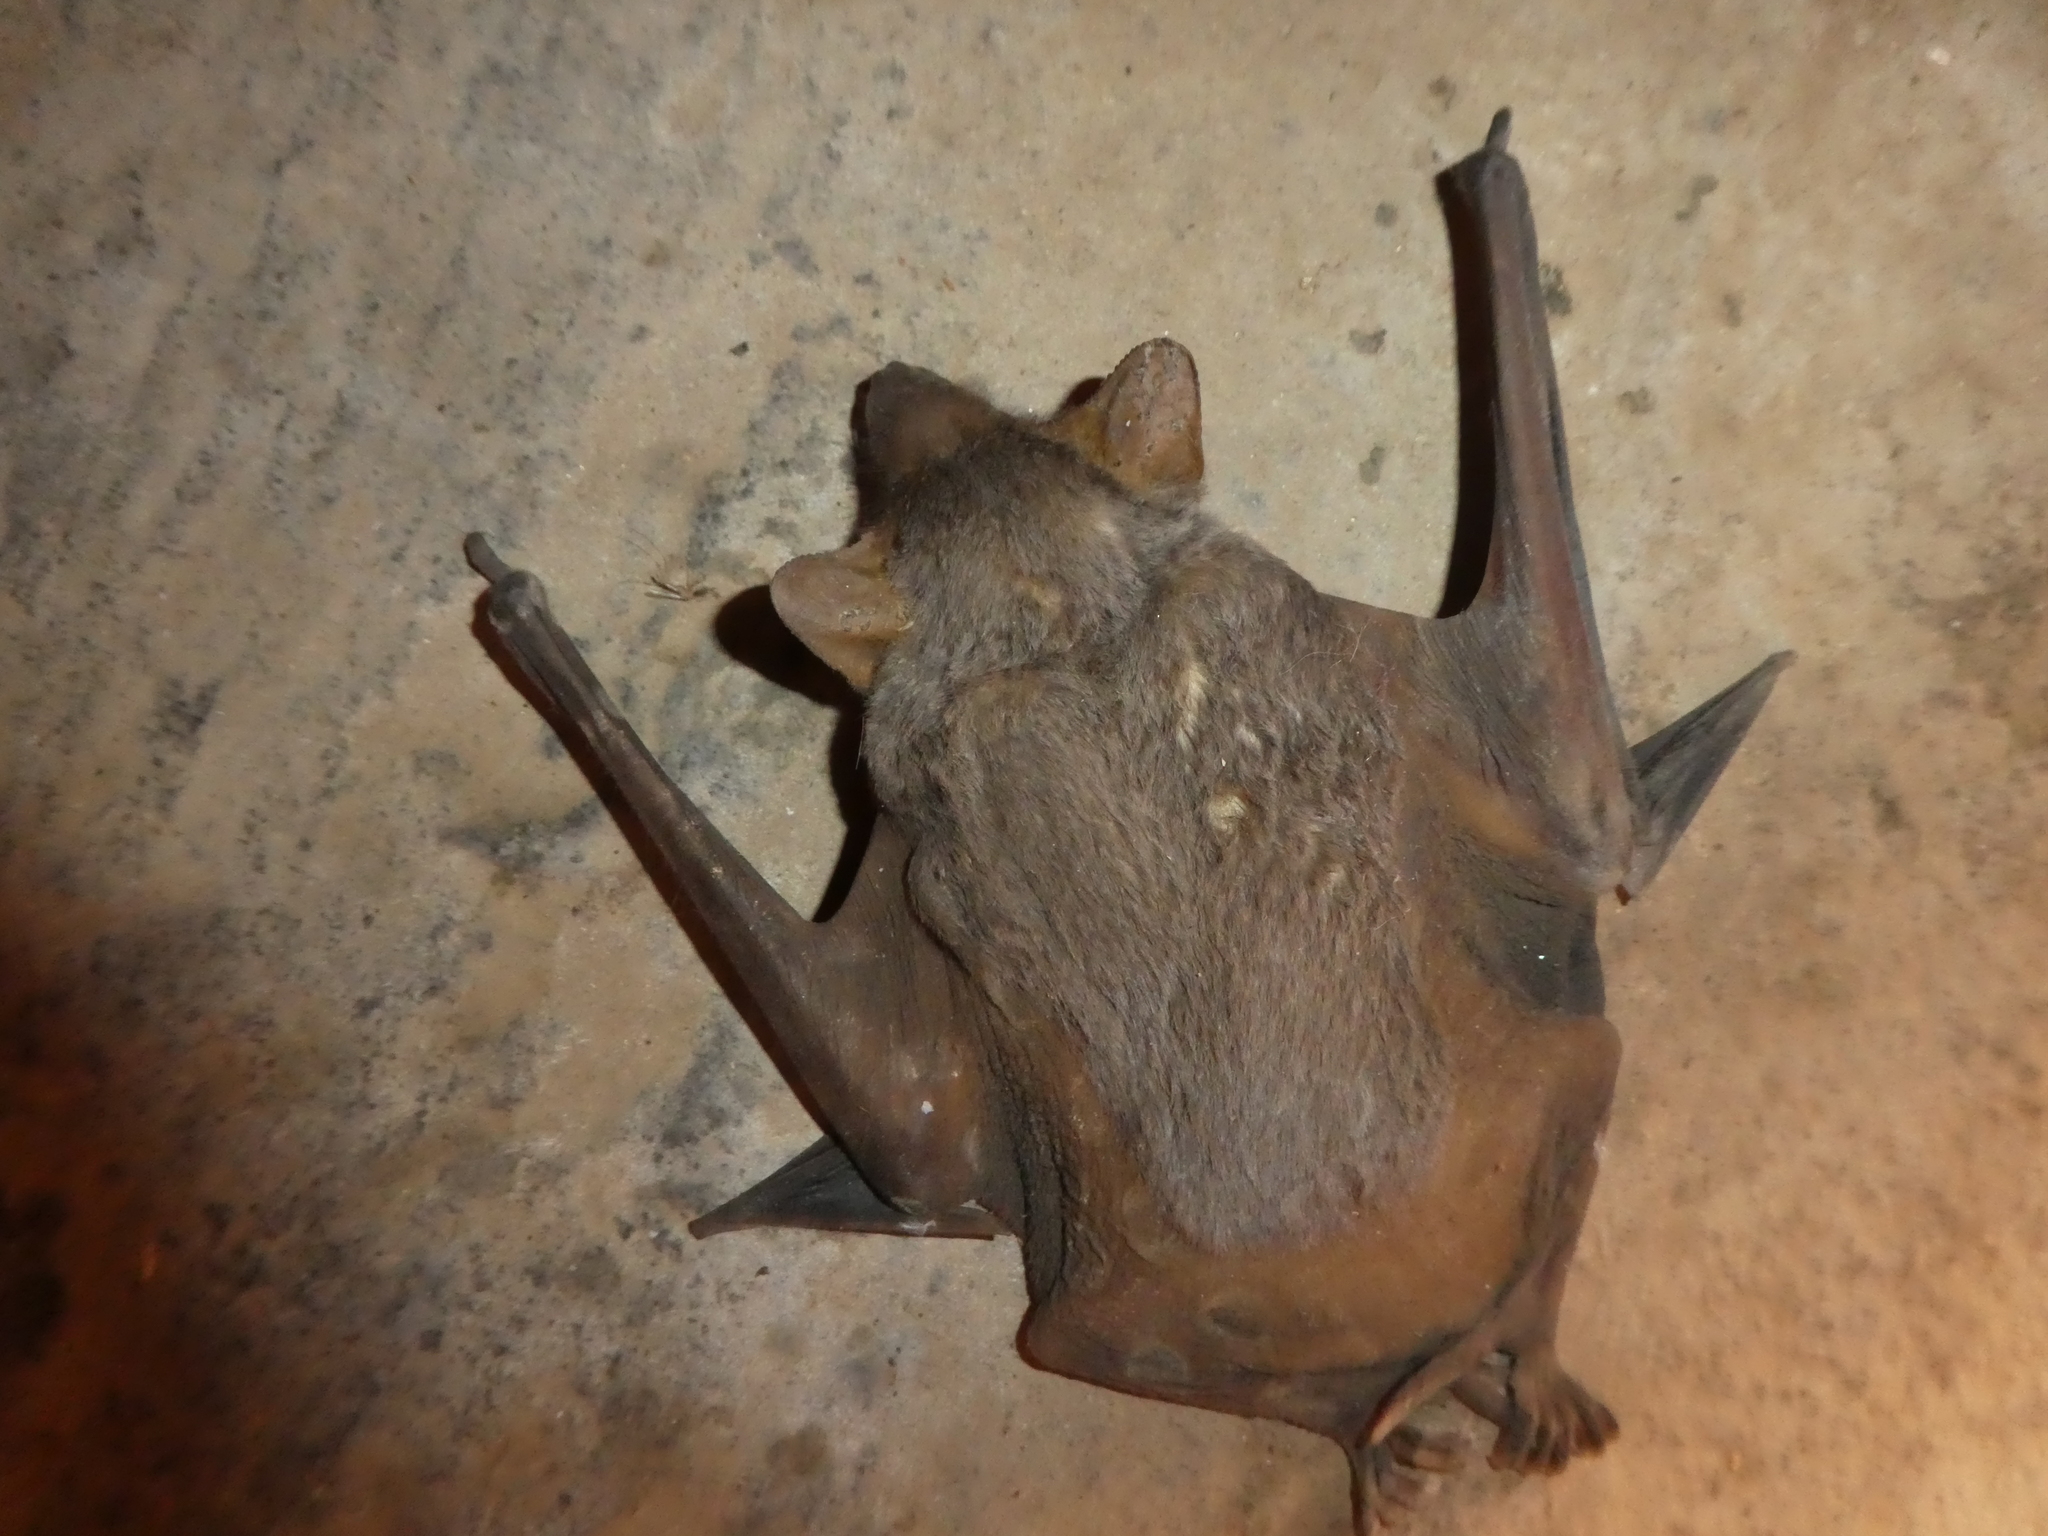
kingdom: Animalia
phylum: Chordata
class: Mammalia
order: Chiroptera
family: Emballonuridae
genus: Taphozous
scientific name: Taphozous nudiventris
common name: Naked-rumped tomb bat
